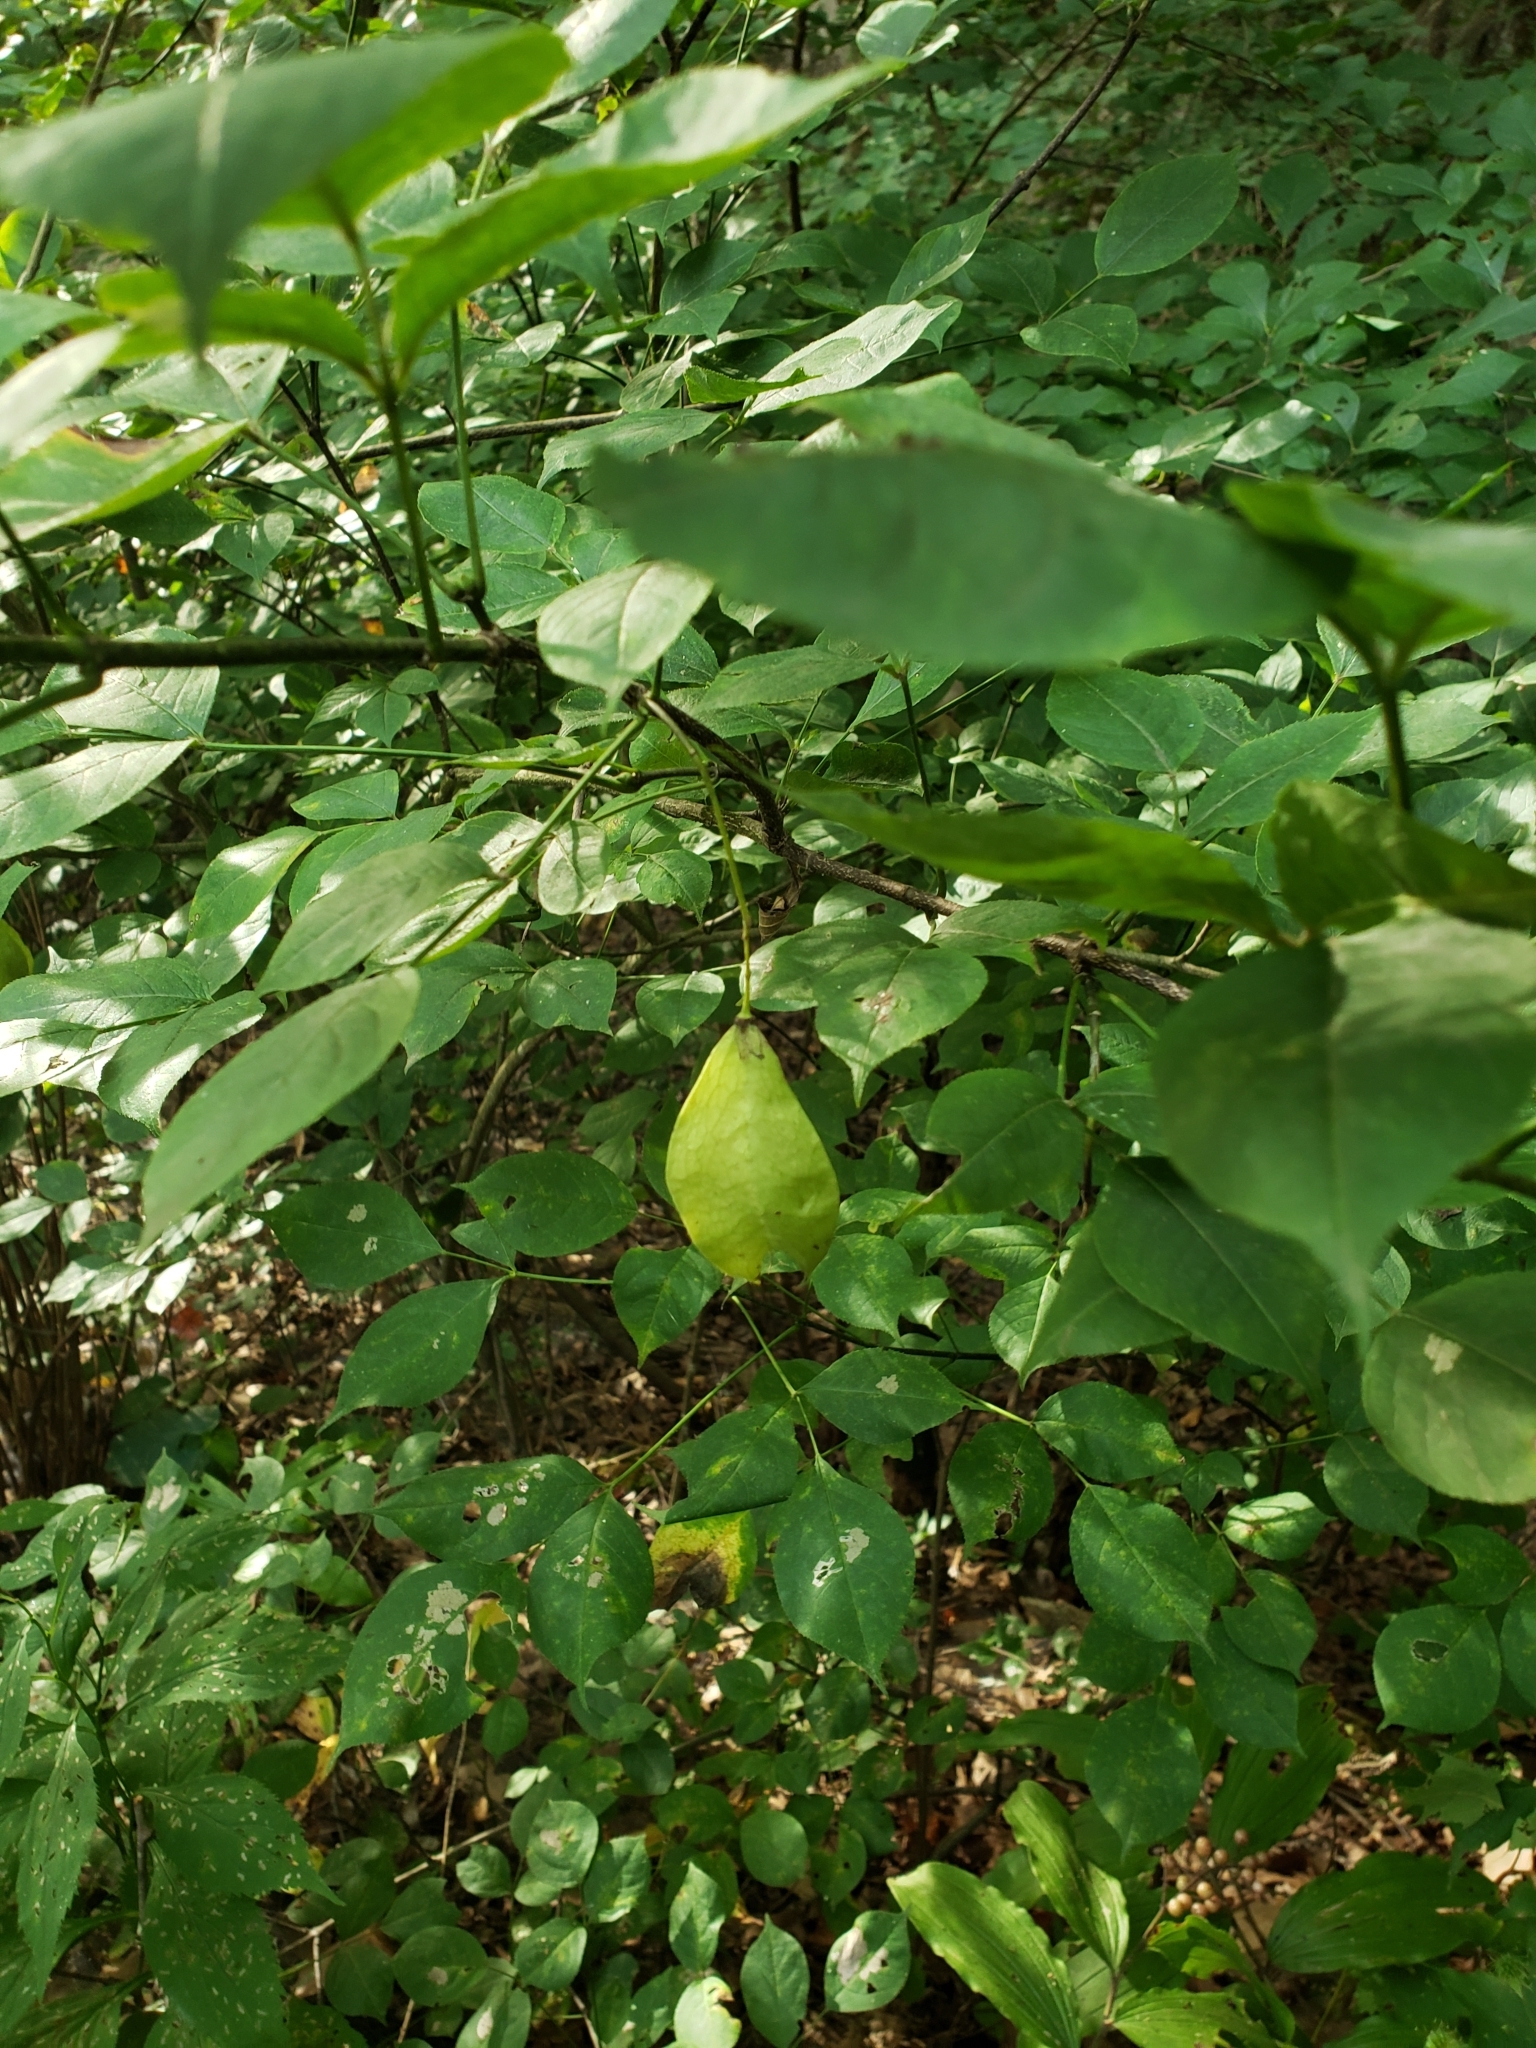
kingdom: Plantae
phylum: Tracheophyta
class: Magnoliopsida
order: Crossosomatales
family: Staphyleaceae
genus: Staphylea
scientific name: Staphylea trifolia
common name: American bladdernut
